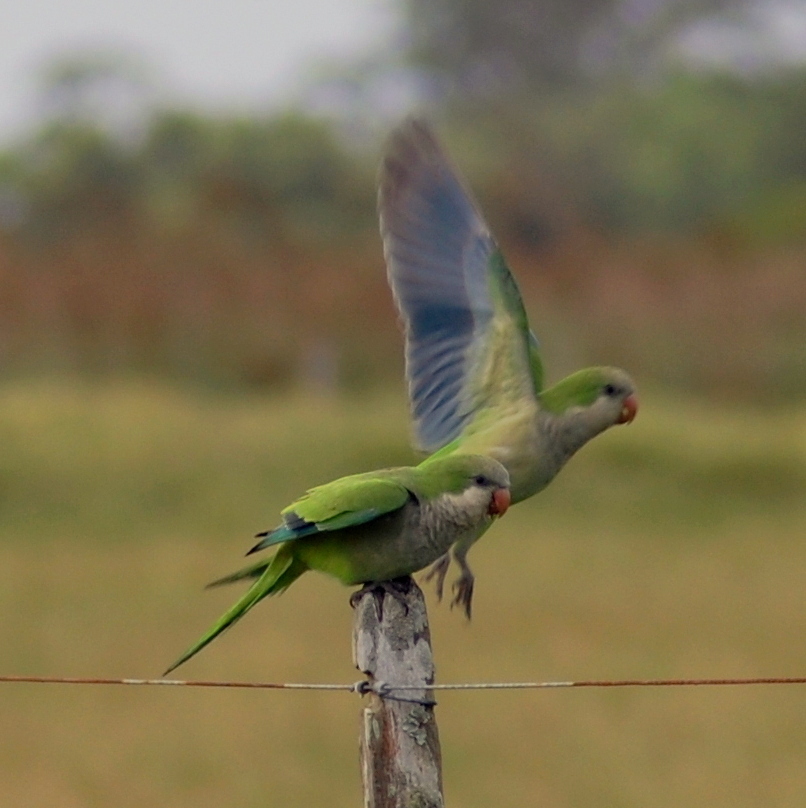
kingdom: Animalia
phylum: Chordata
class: Aves
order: Psittaciformes
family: Psittacidae
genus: Myiopsitta
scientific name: Myiopsitta monachus
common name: Monk parakeet
